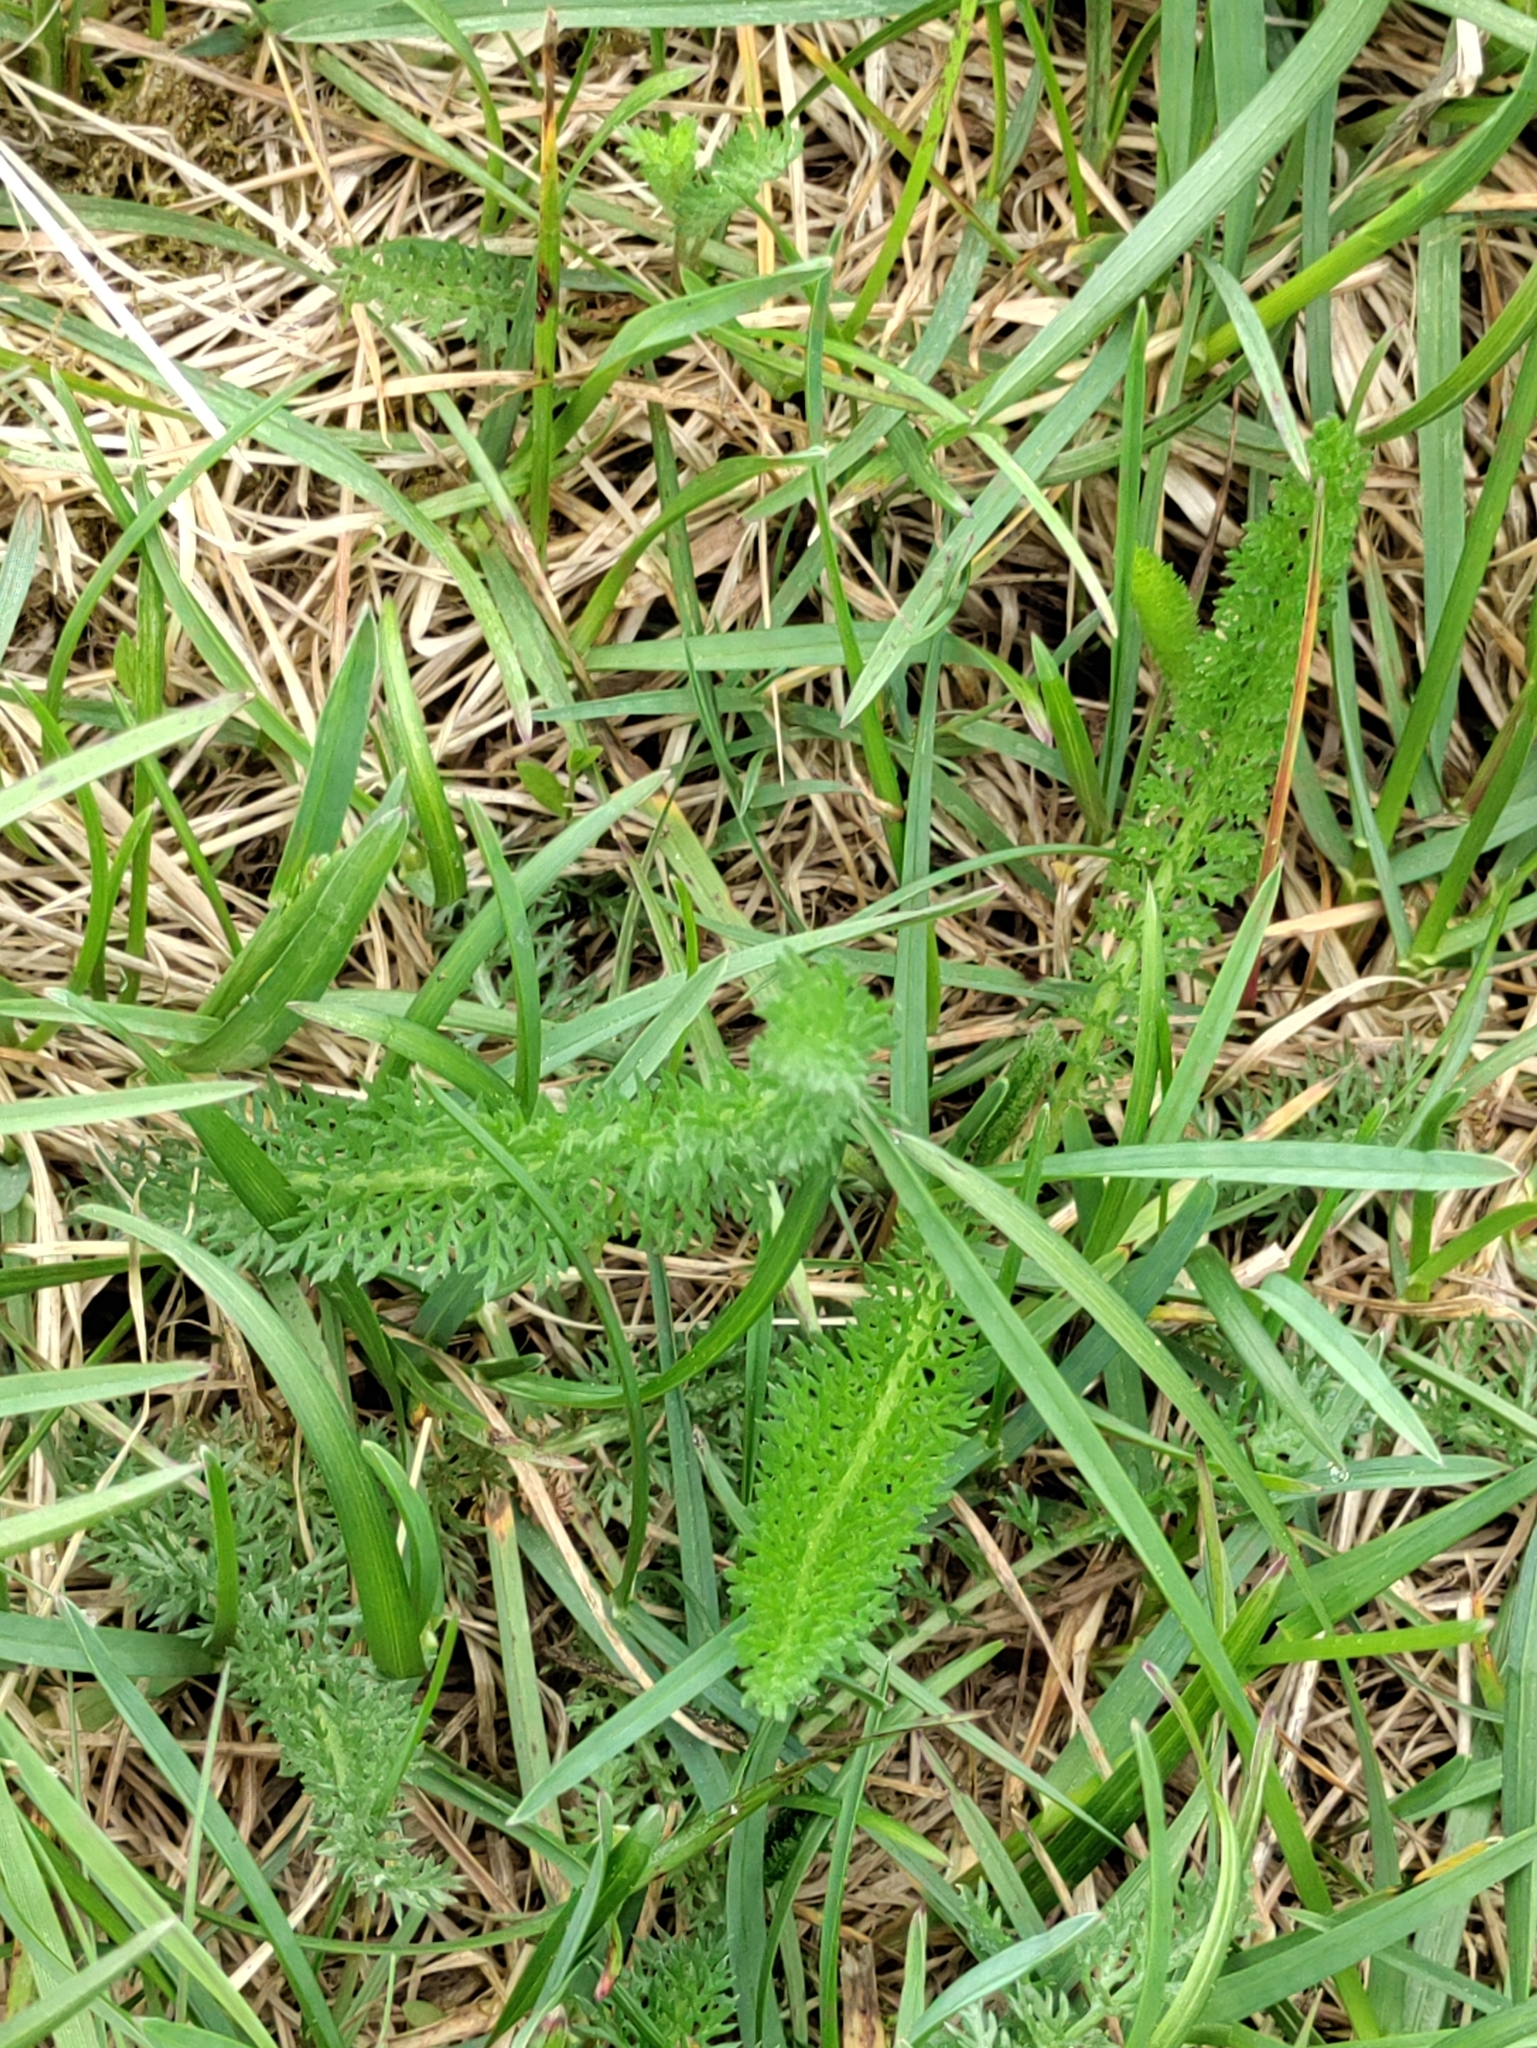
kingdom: Plantae
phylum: Tracheophyta
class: Magnoliopsida
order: Asterales
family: Asteraceae
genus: Achillea
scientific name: Achillea millefolium
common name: Yarrow
